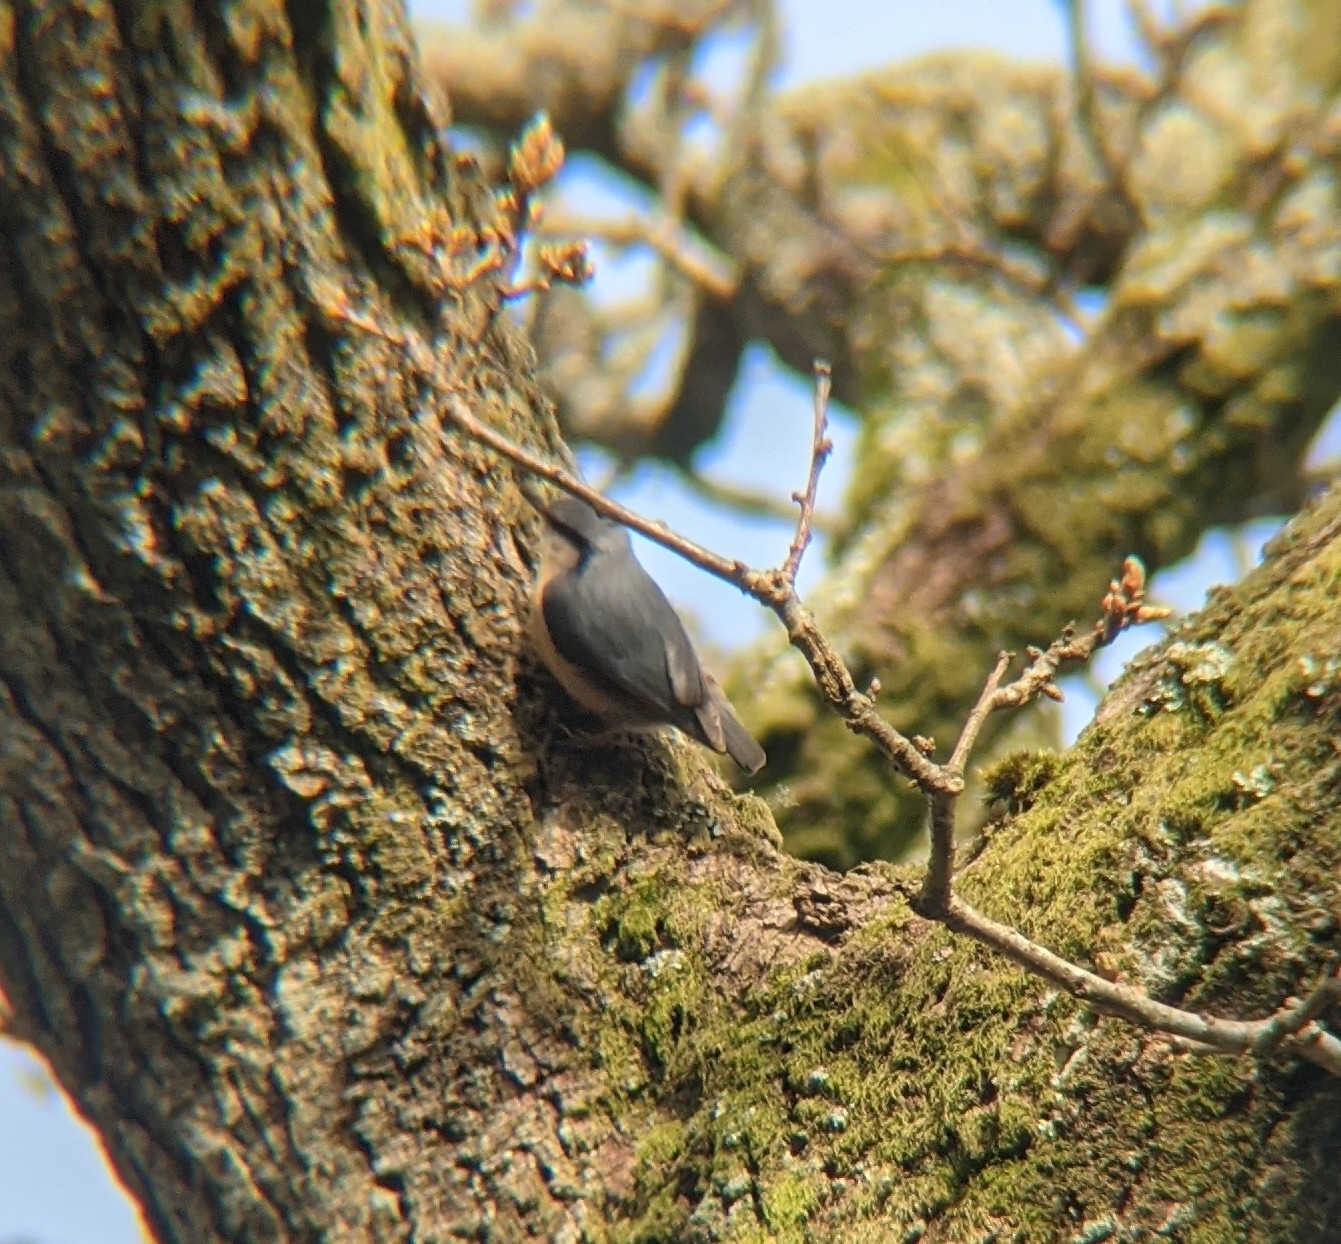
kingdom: Animalia
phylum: Chordata
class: Aves
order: Passeriformes
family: Sittidae
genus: Sitta
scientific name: Sitta europaea
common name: Eurasian nuthatch
